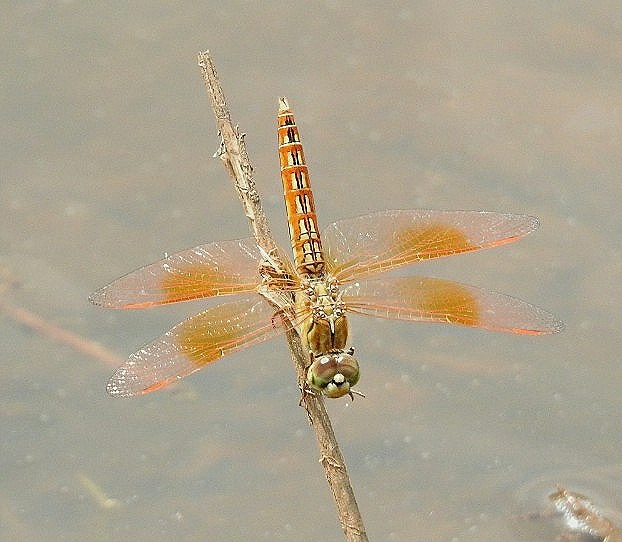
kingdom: Animalia
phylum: Arthropoda
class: Insecta
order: Odonata
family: Libellulidae
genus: Brachythemis
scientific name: Brachythemis contaminata
